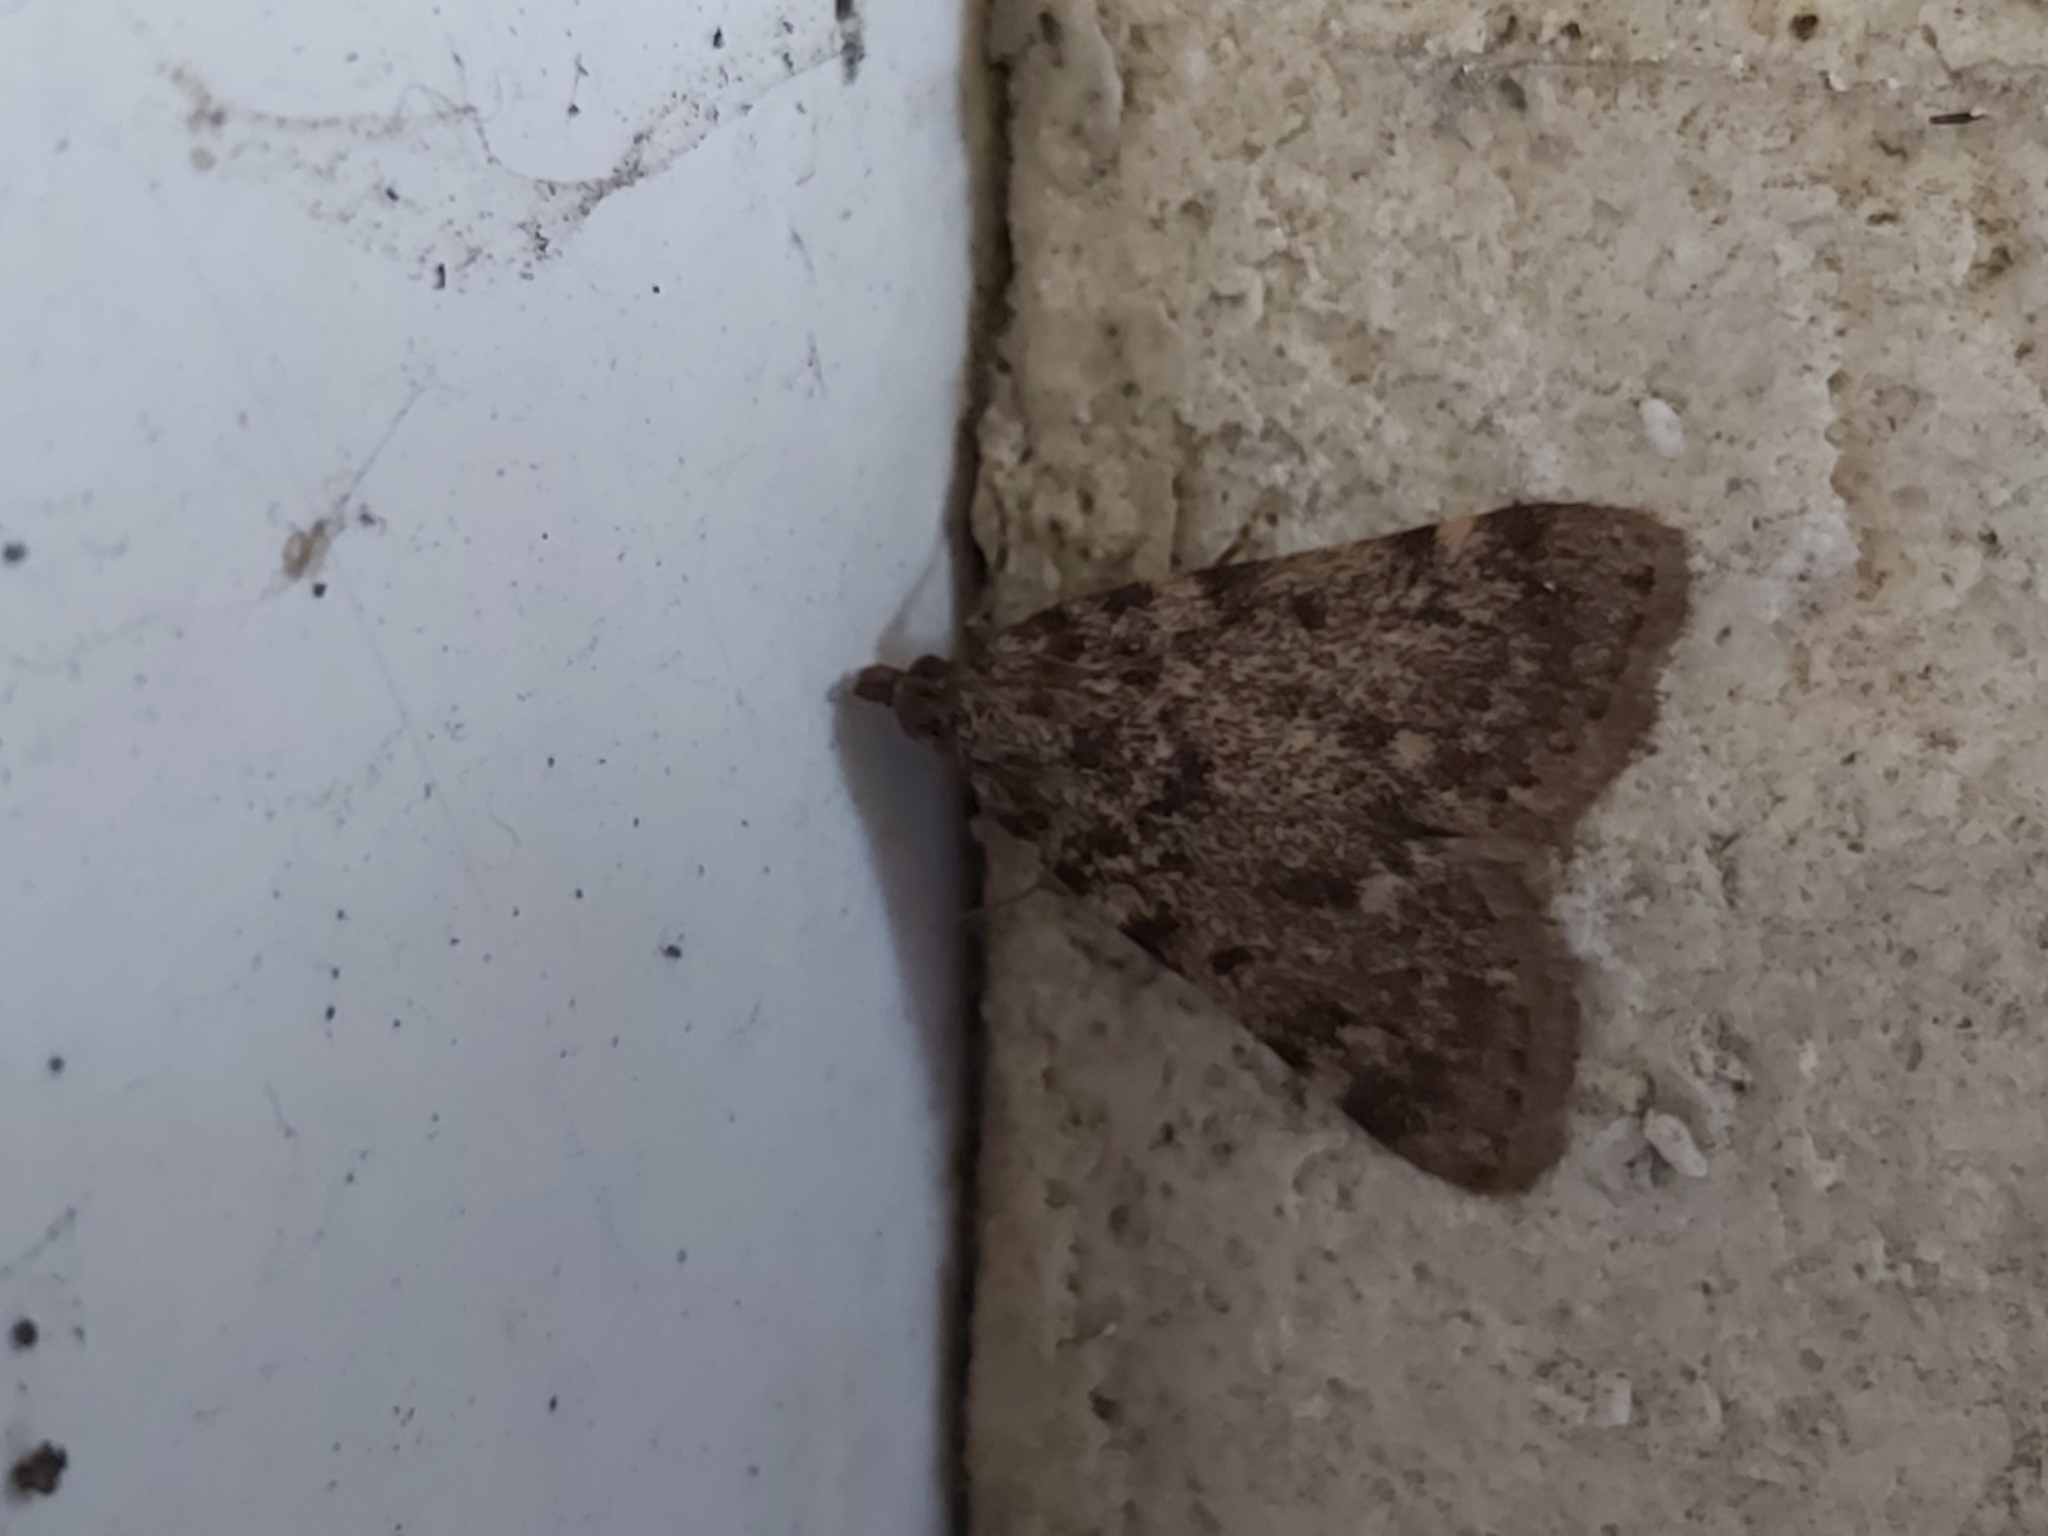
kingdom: Animalia
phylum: Arthropoda
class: Insecta
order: Lepidoptera
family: Pyralidae
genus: Aglossa
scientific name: Aglossa pinguinalis
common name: Large tabby
